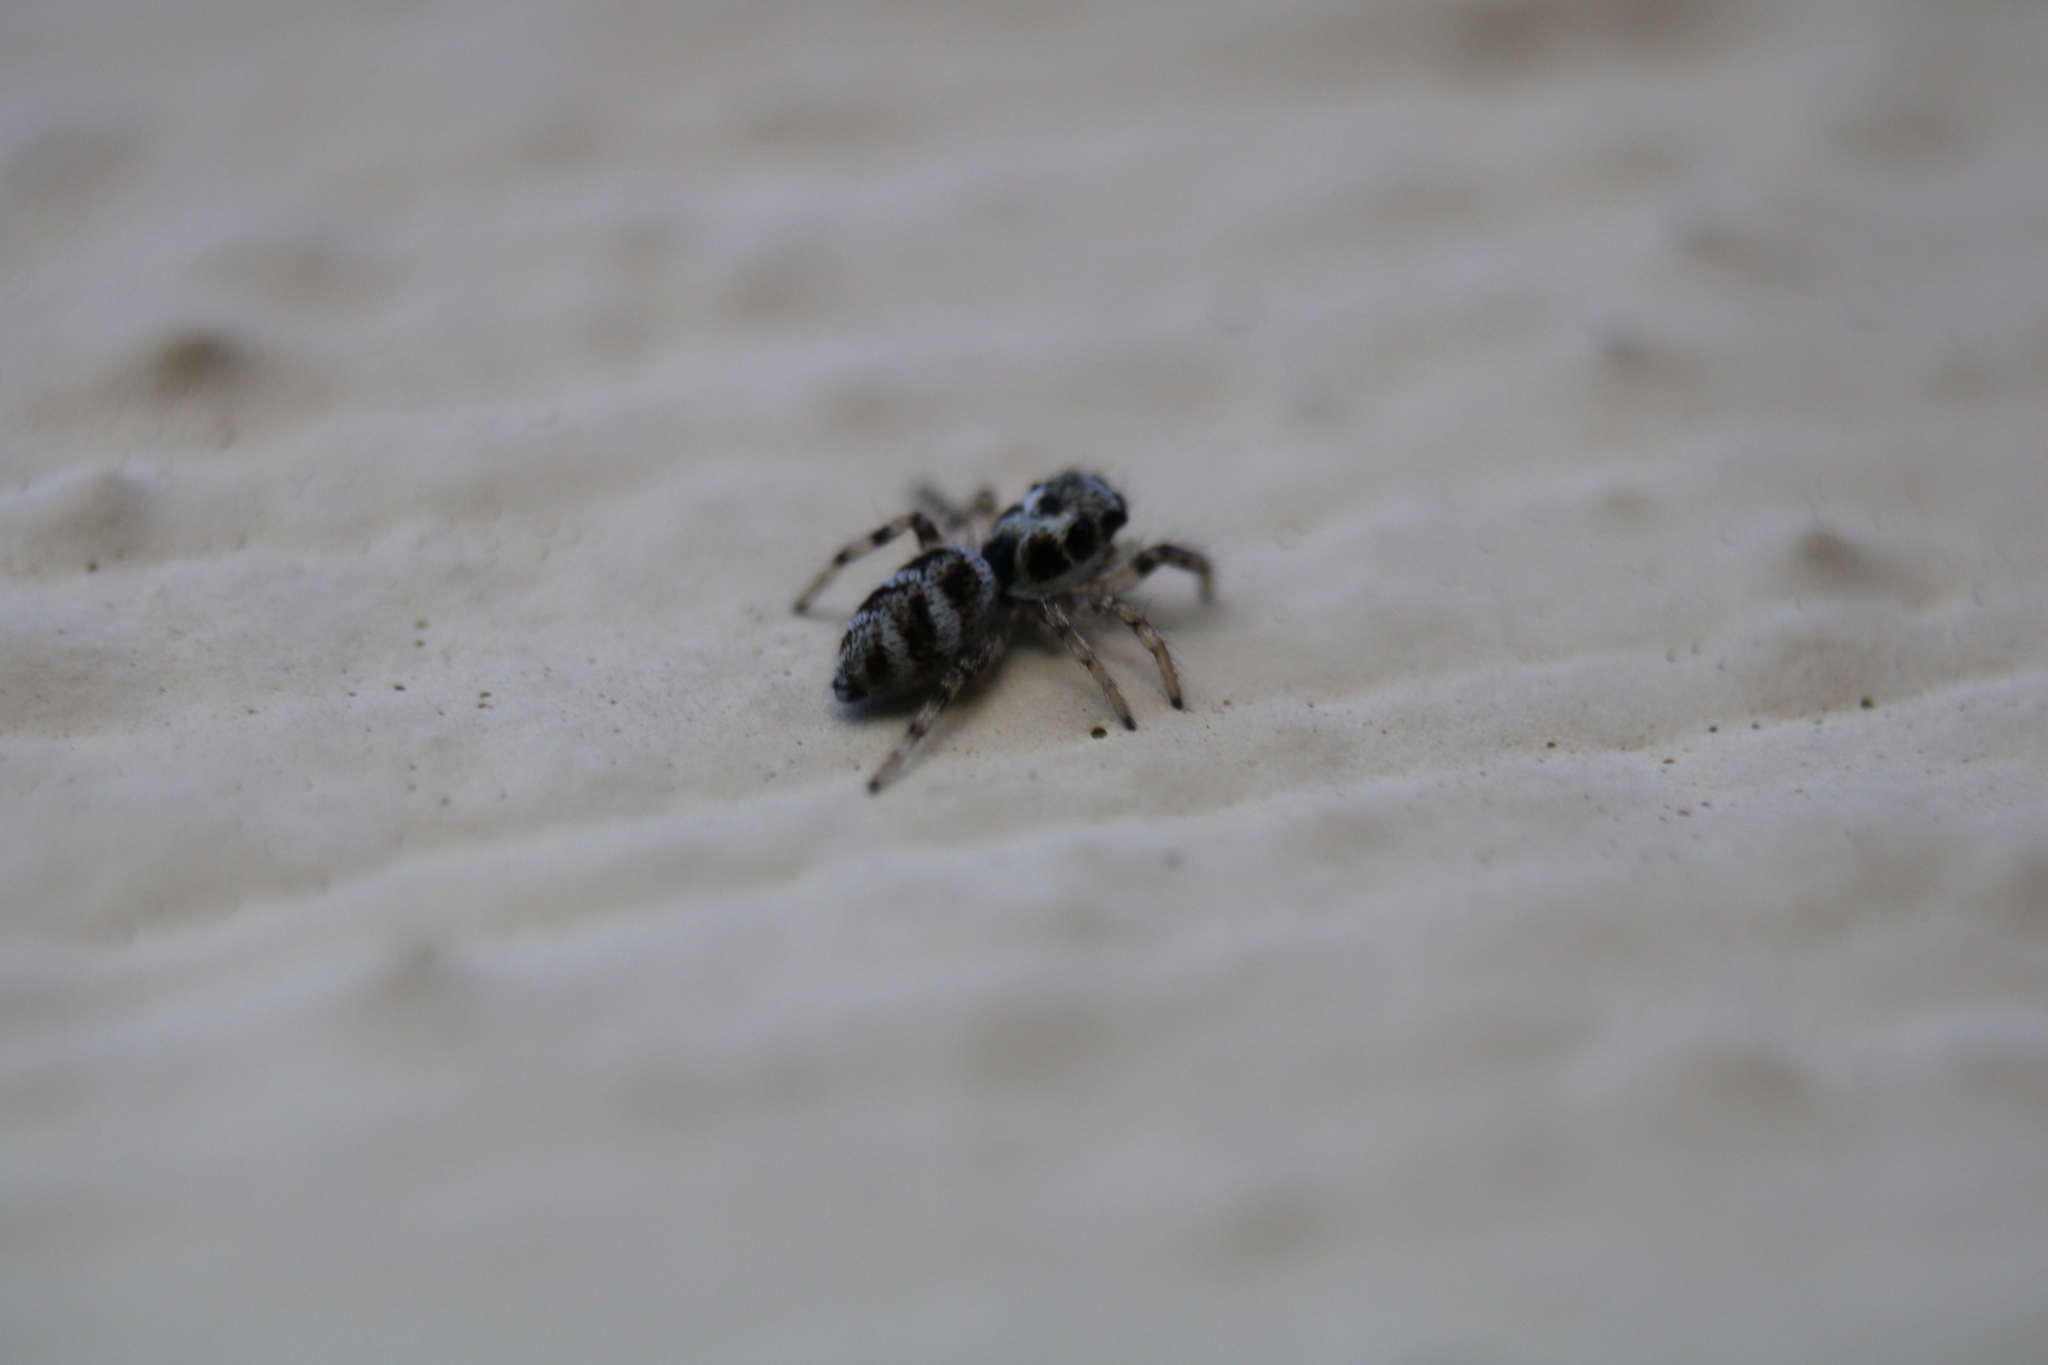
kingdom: Animalia
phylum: Arthropoda
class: Arachnida
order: Araneae
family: Salticidae
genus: Salticus
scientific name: Salticus scenicus
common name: Zebra jumper
